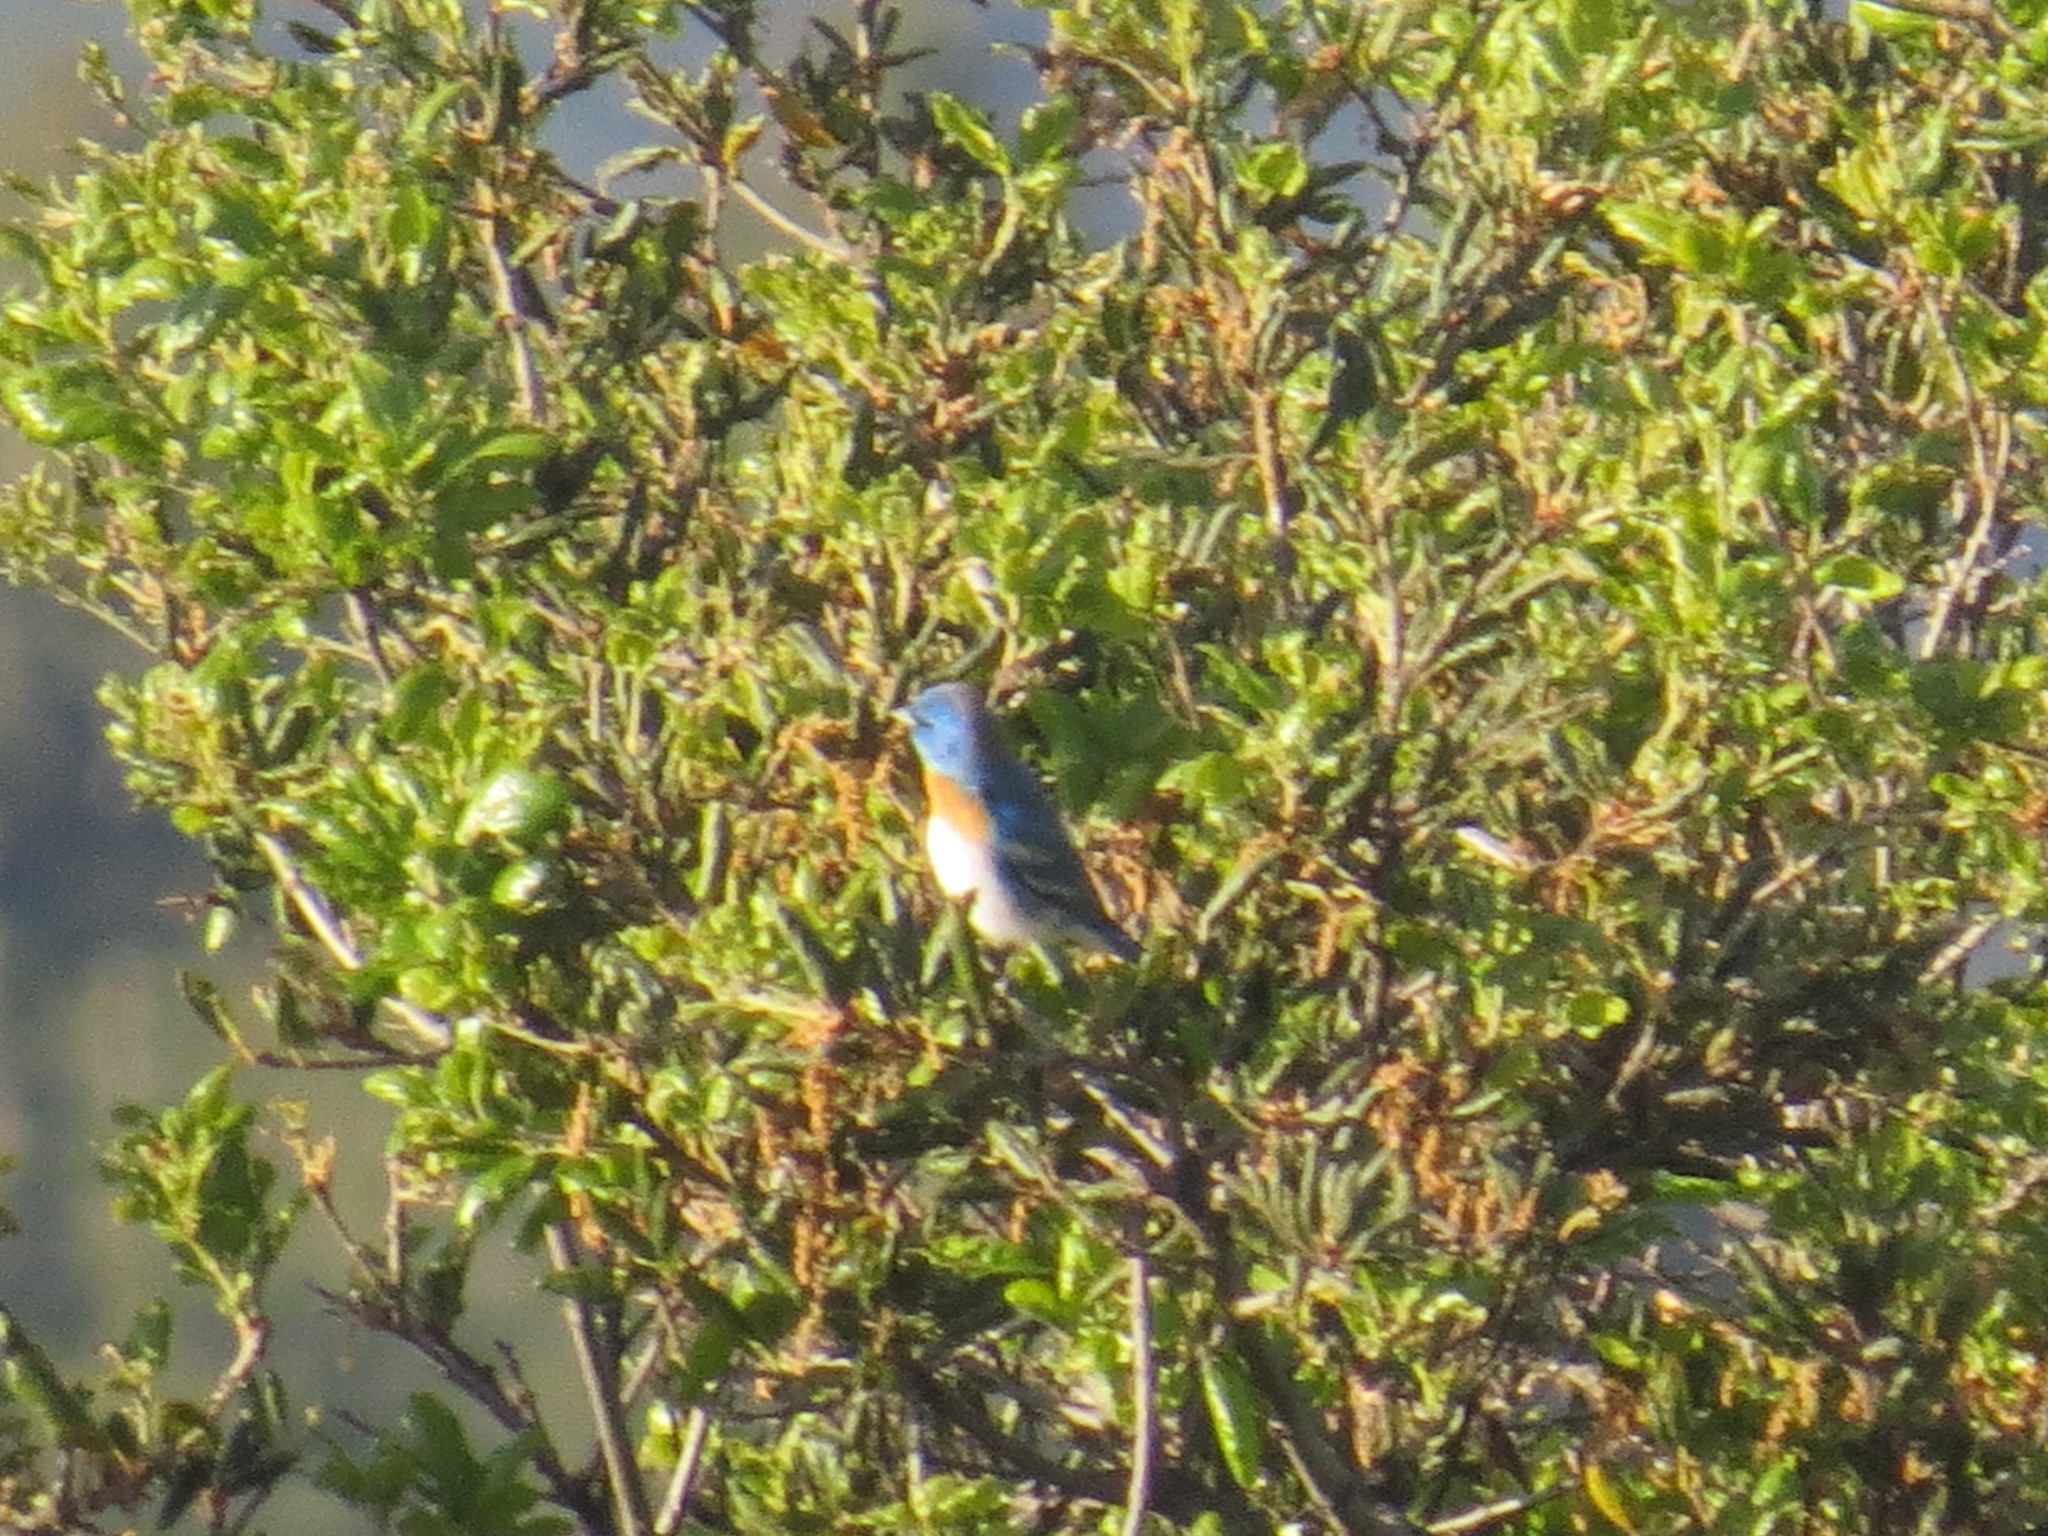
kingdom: Animalia
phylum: Chordata
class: Aves
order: Passeriformes
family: Cardinalidae
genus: Passerina
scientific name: Passerina amoena
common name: Lazuli bunting
